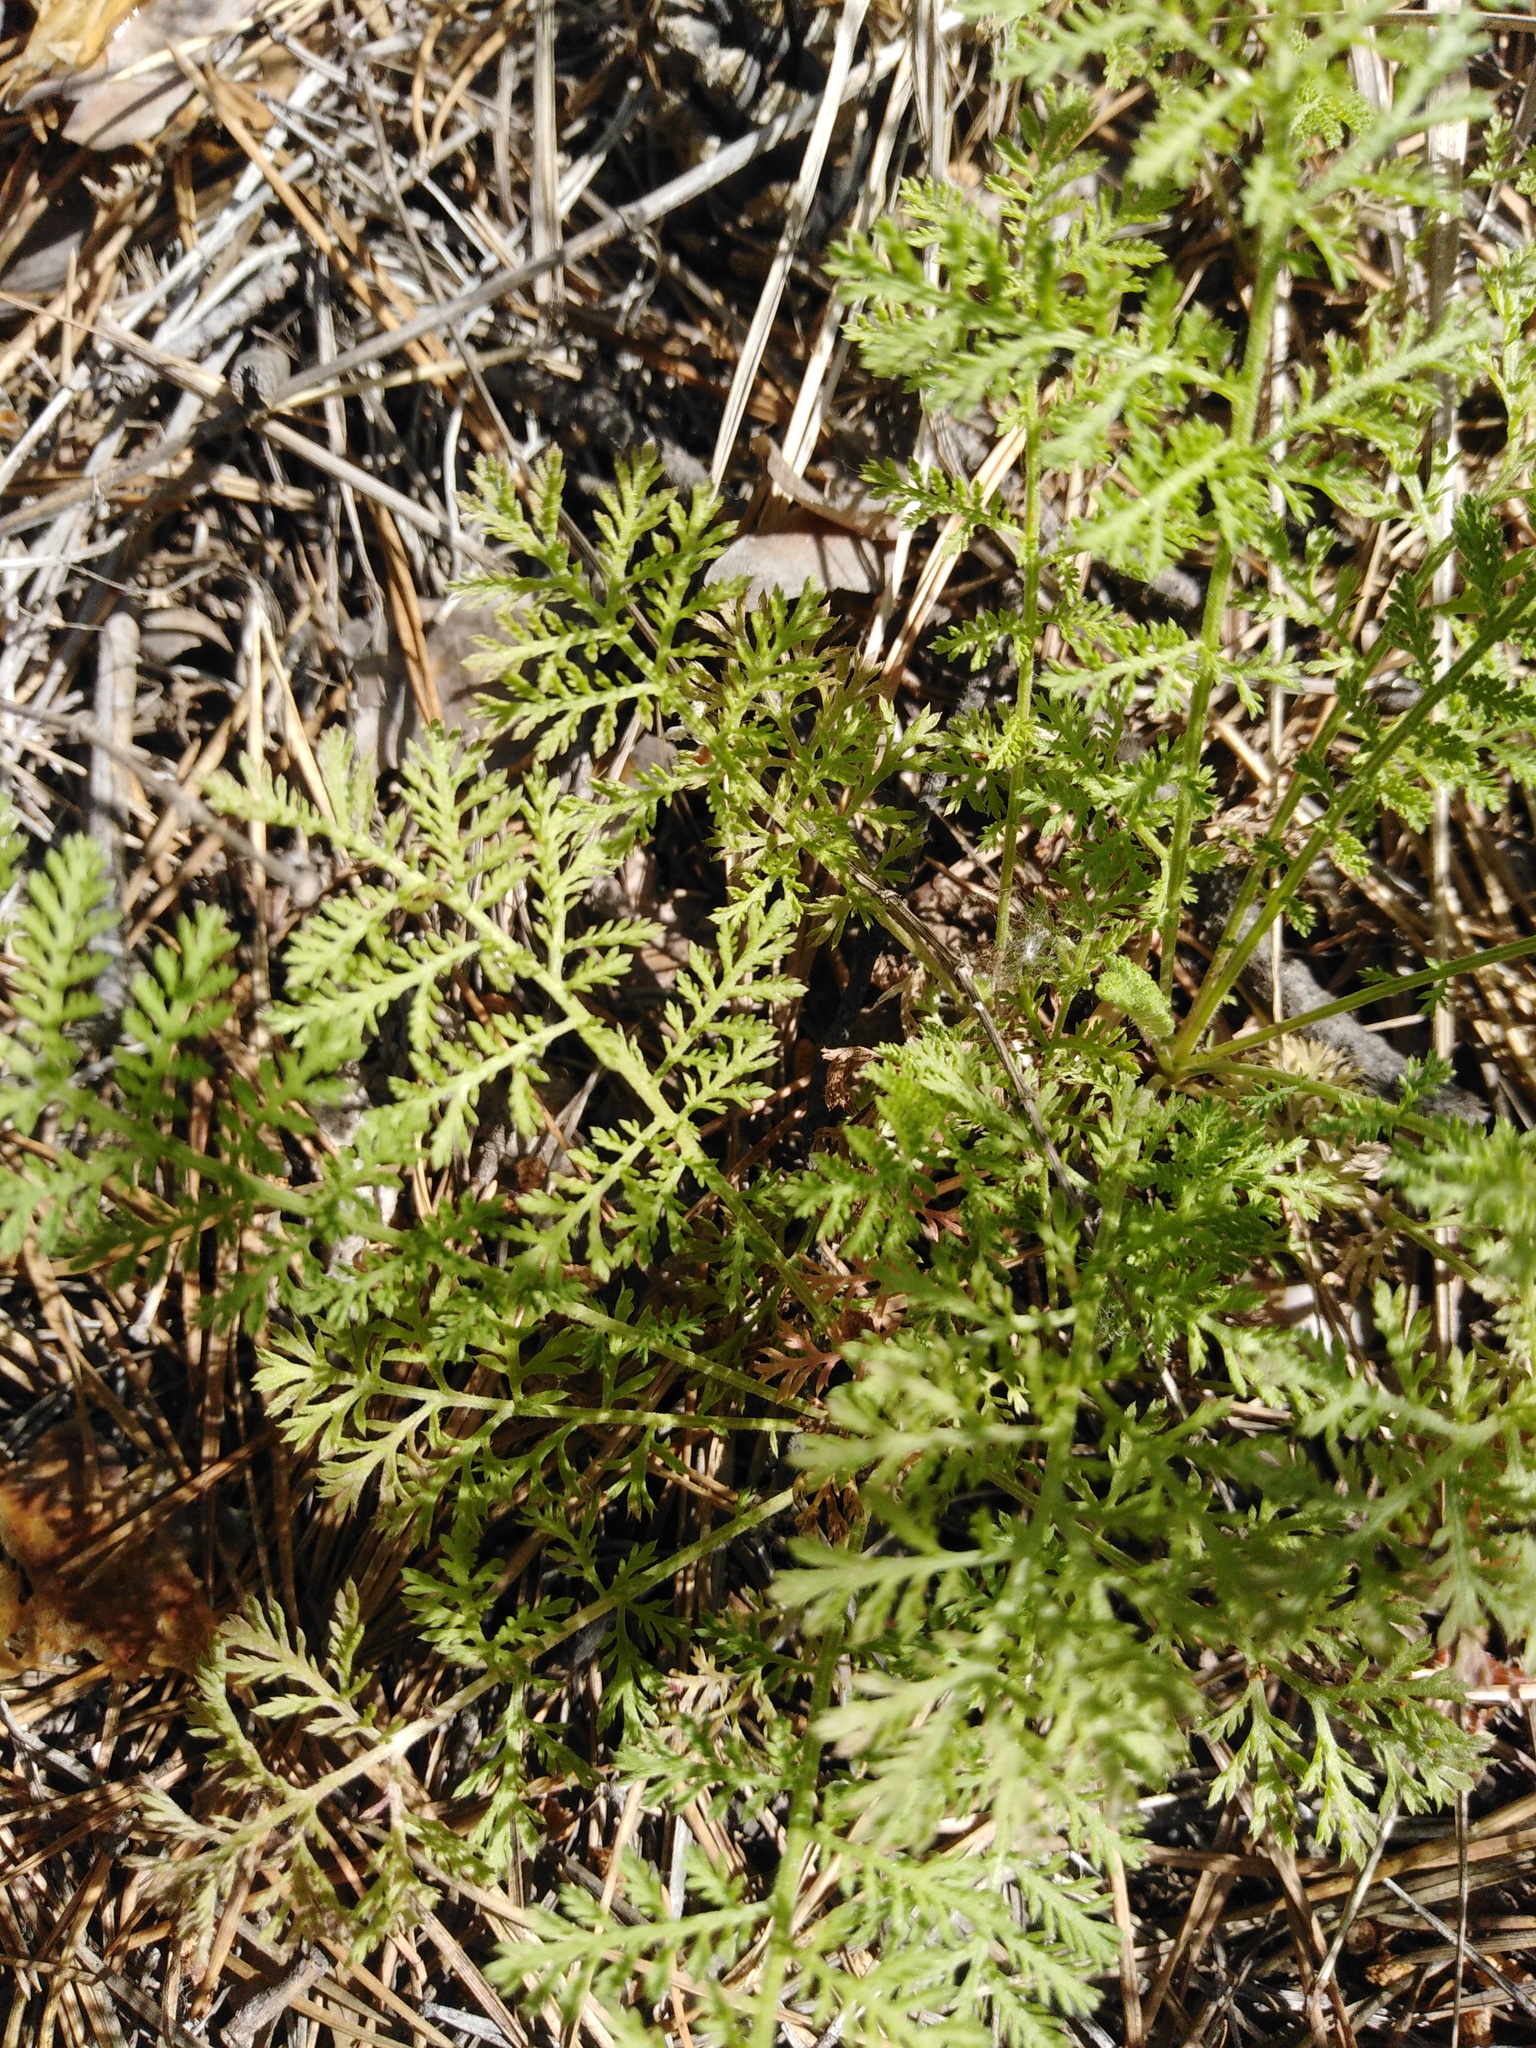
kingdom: Plantae
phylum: Tracheophyta
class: Magnoliopsida
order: Asterales
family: Asteraceae
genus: Achillea
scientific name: Achillea nobilis
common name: Noble yarrow
